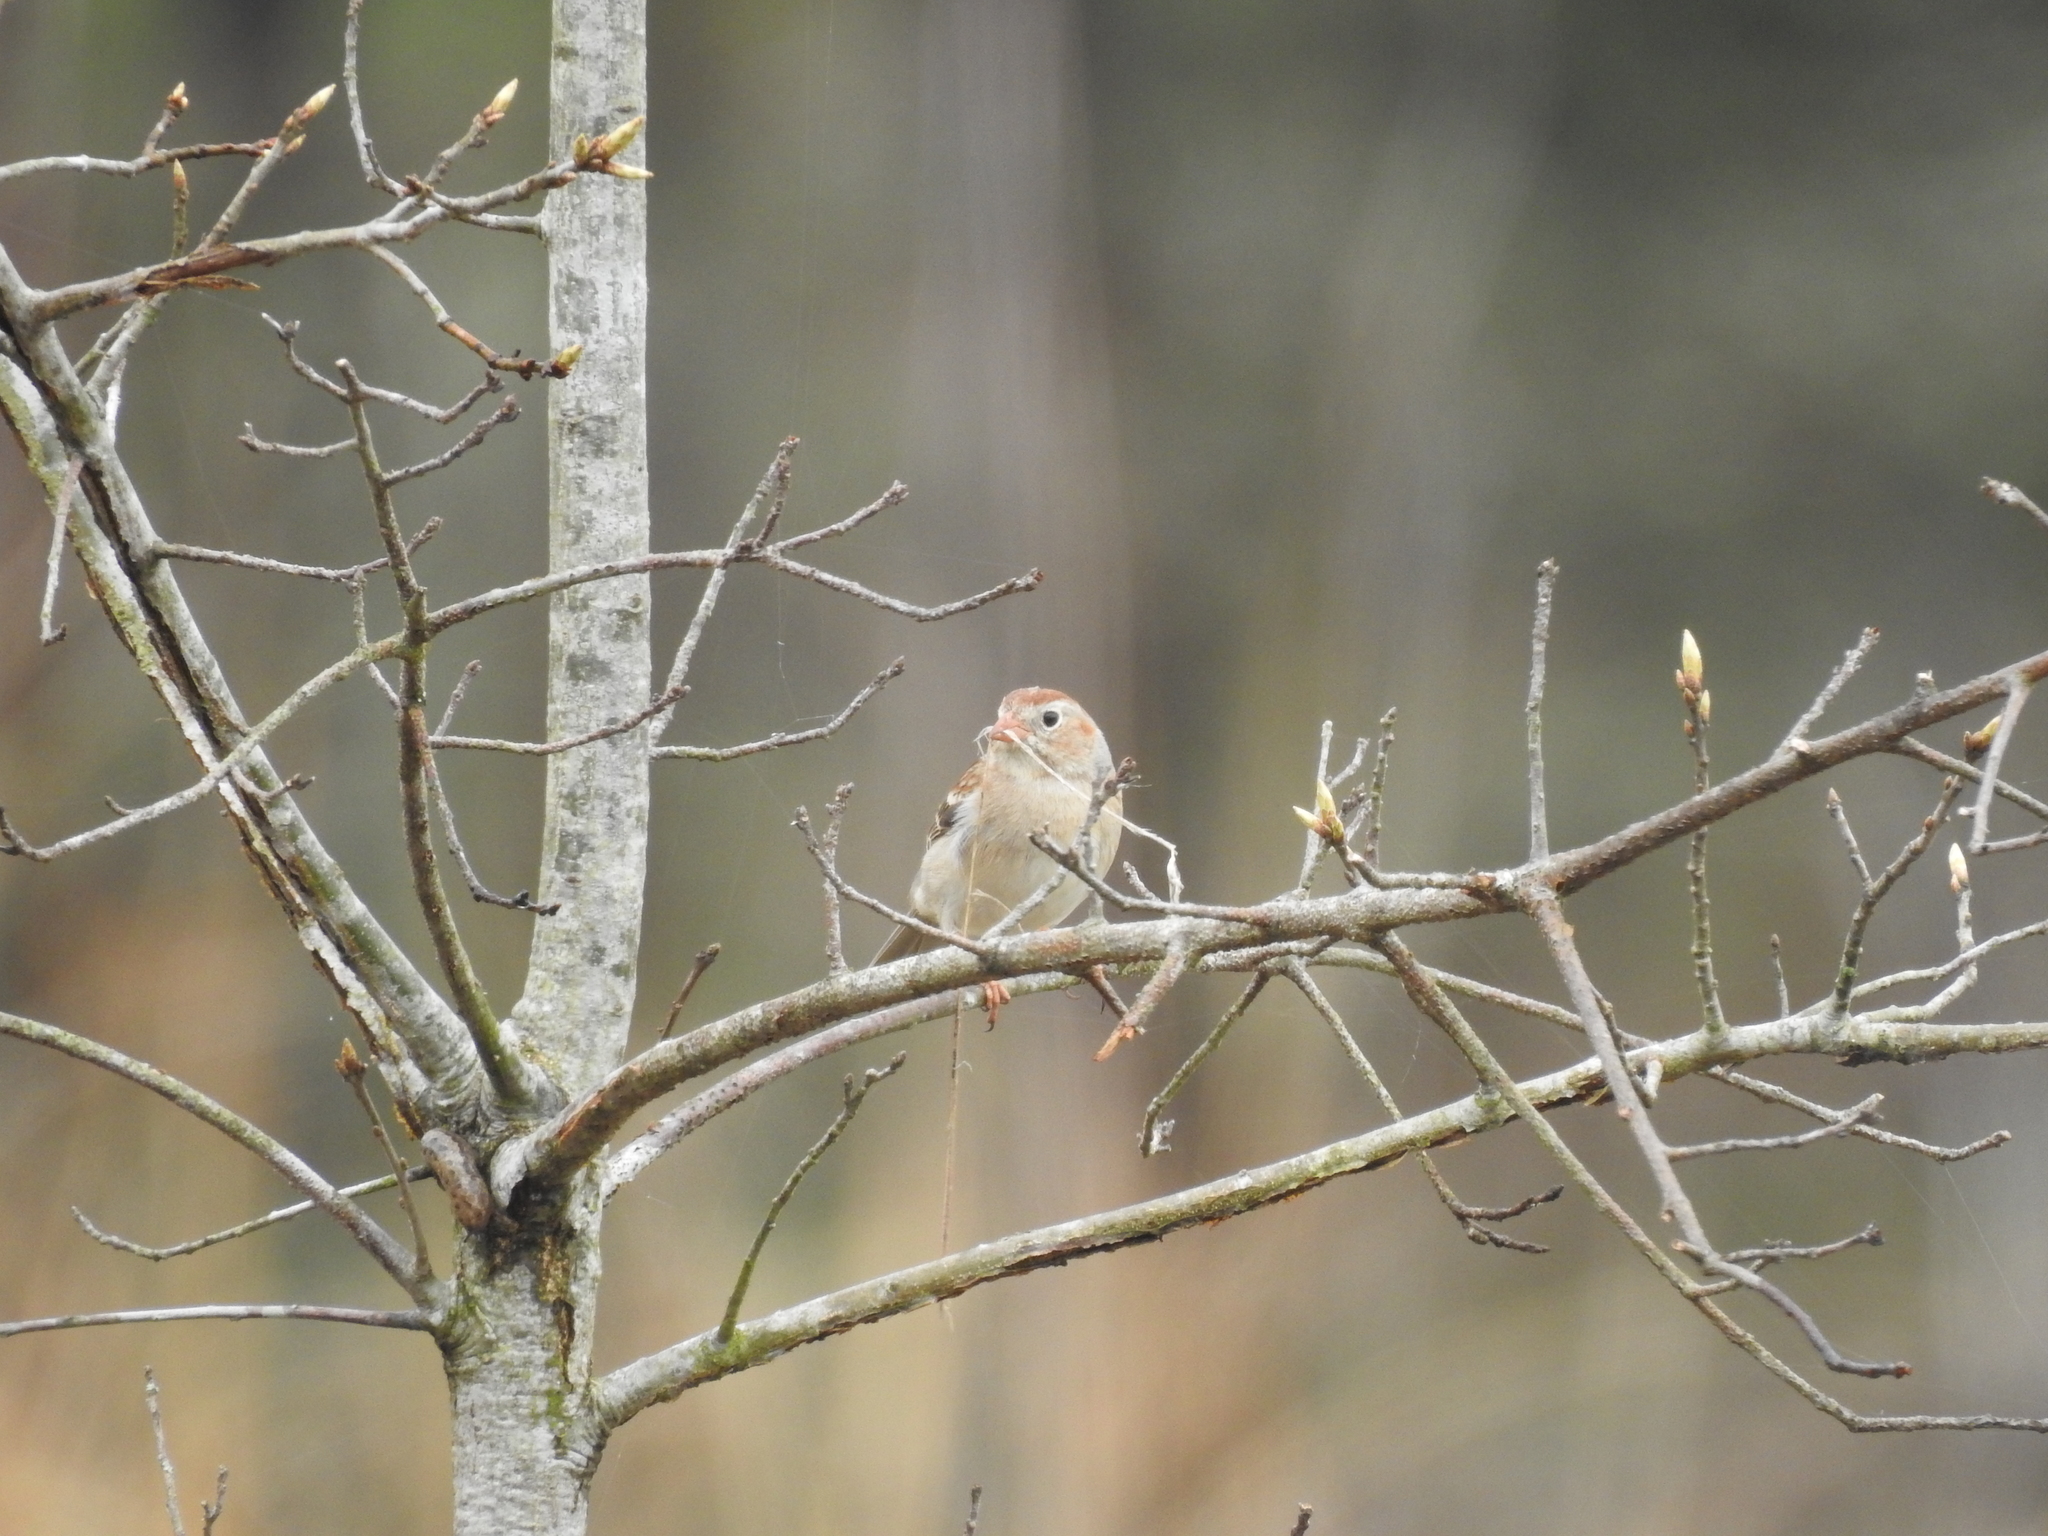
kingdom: Animalia
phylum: Chordata
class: Aves
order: Passeriformes
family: Passerellidae
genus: Spizella
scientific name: Spizella pusilla
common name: Field sparrow
